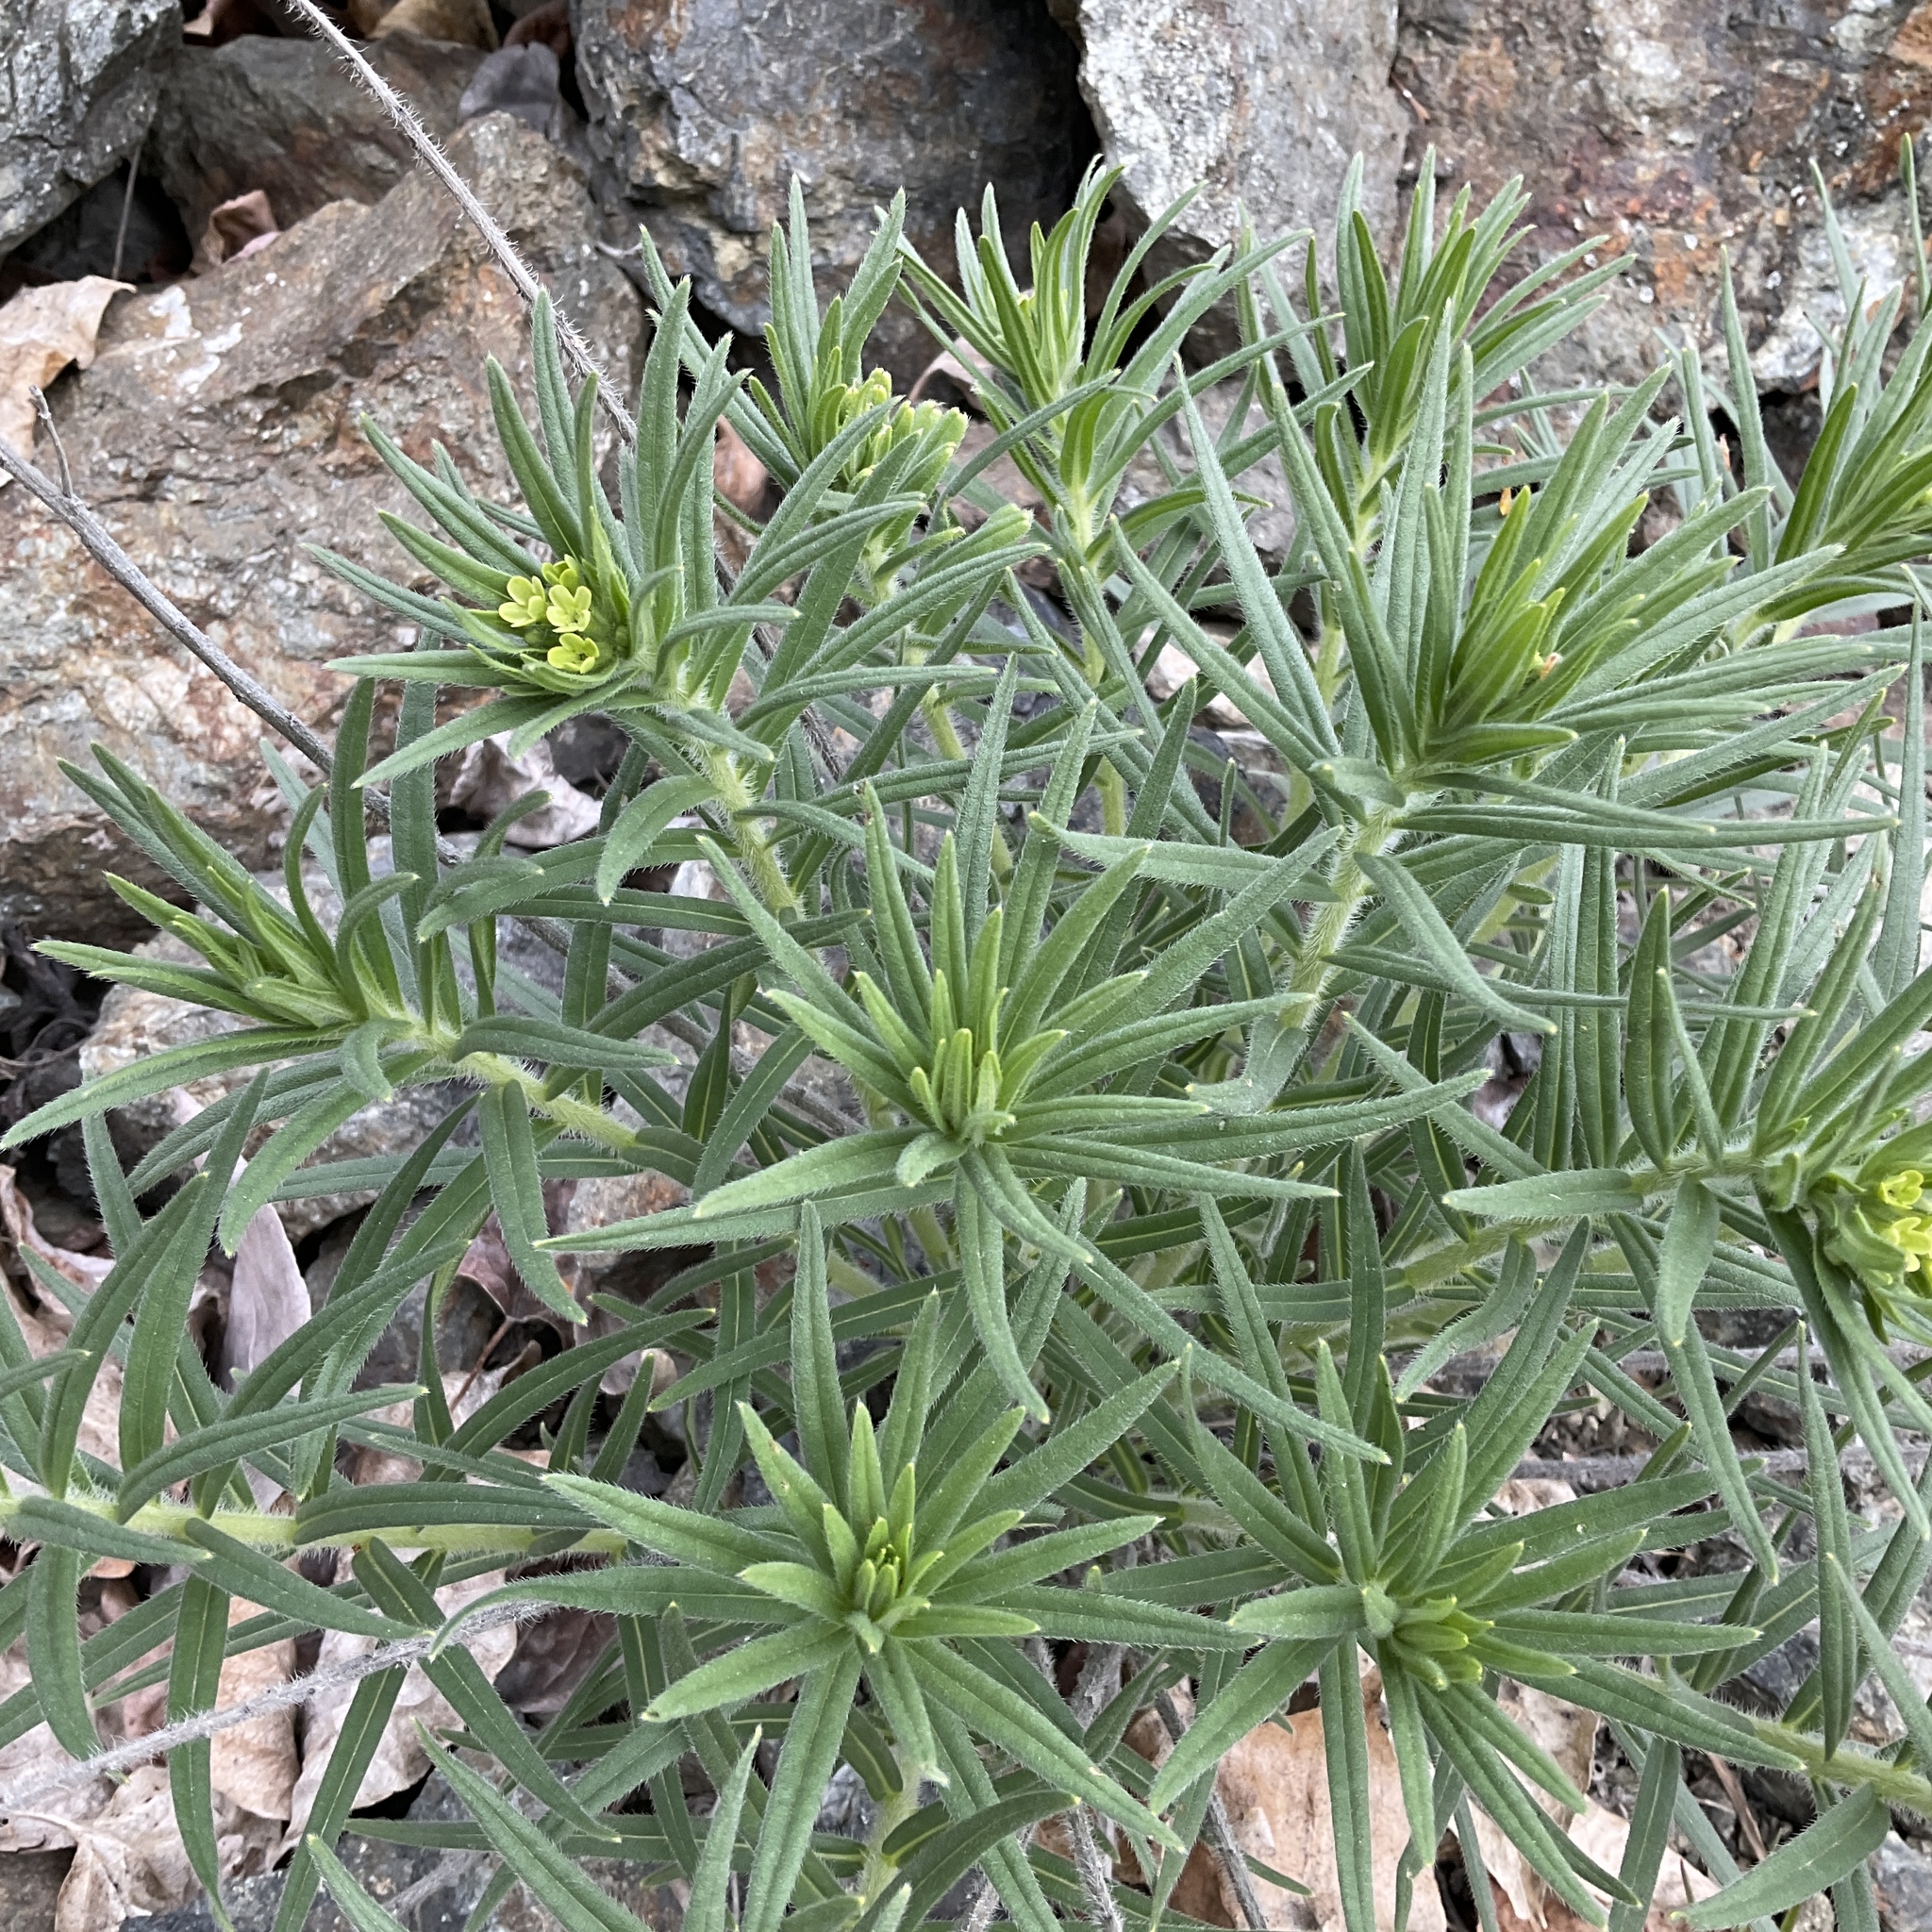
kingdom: Plantae
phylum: Tracheophyta
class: Magnoliopsida
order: Boraginales
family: Boraginaceae
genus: Lithospermum
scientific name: Lithospermum ruderale
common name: Western gromwell
